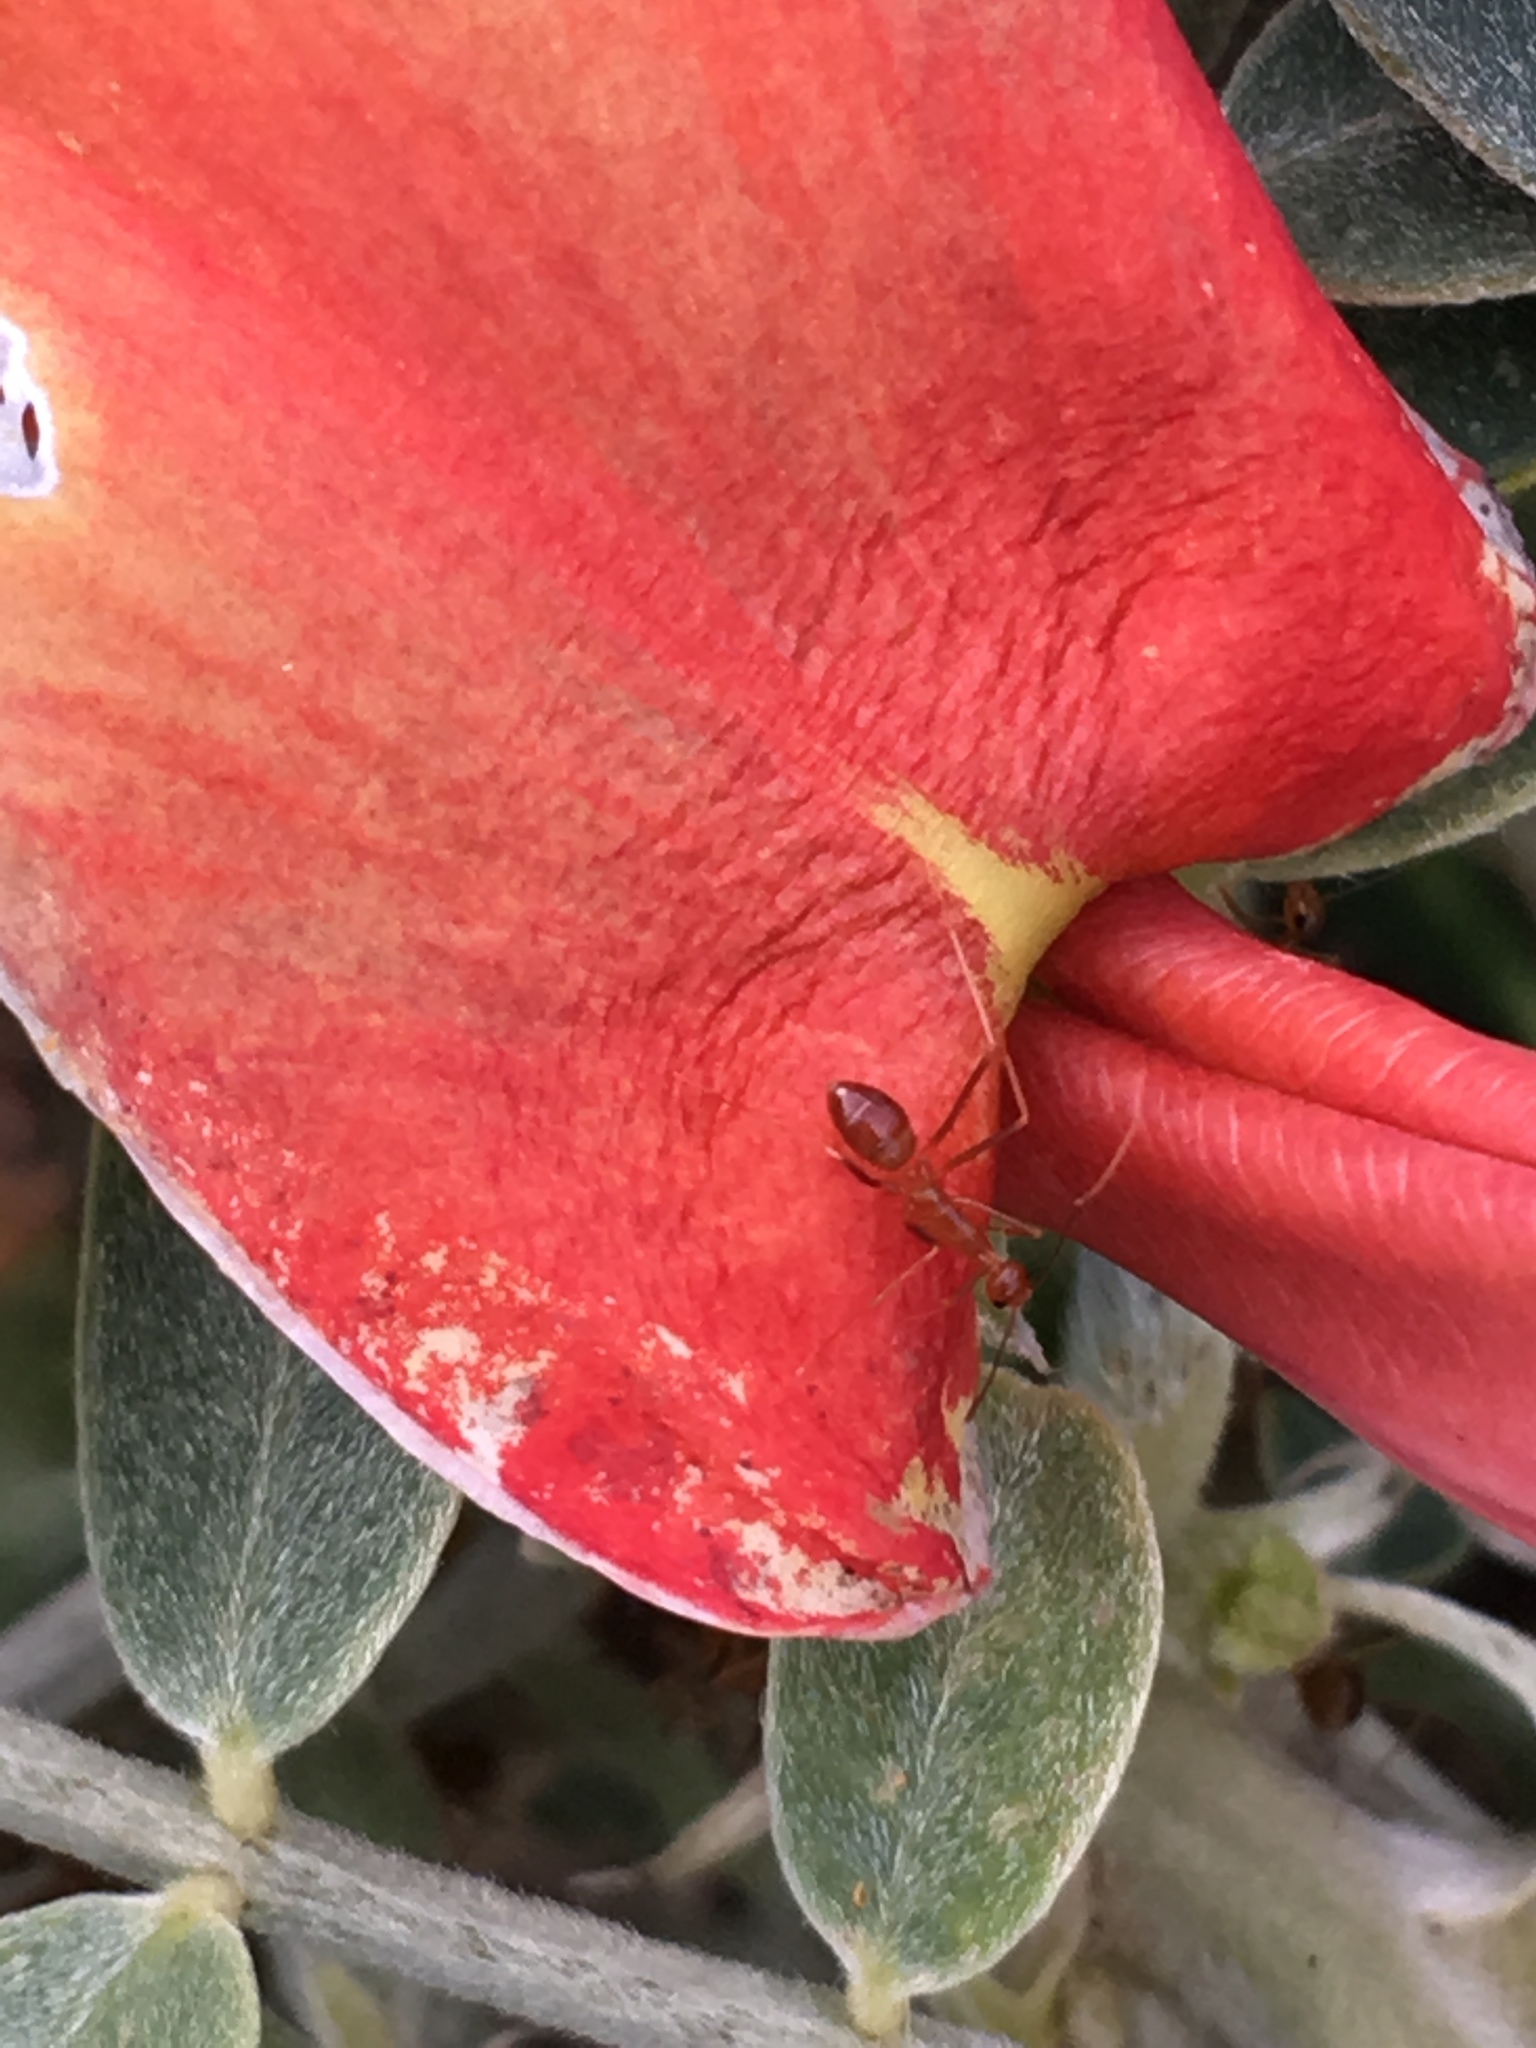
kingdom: Animalia
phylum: Arthropoda
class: Insecta
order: Hymenoptera
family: Formicidae
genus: Anoplolepis
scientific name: Anoplolepis gracilipes
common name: Ant
